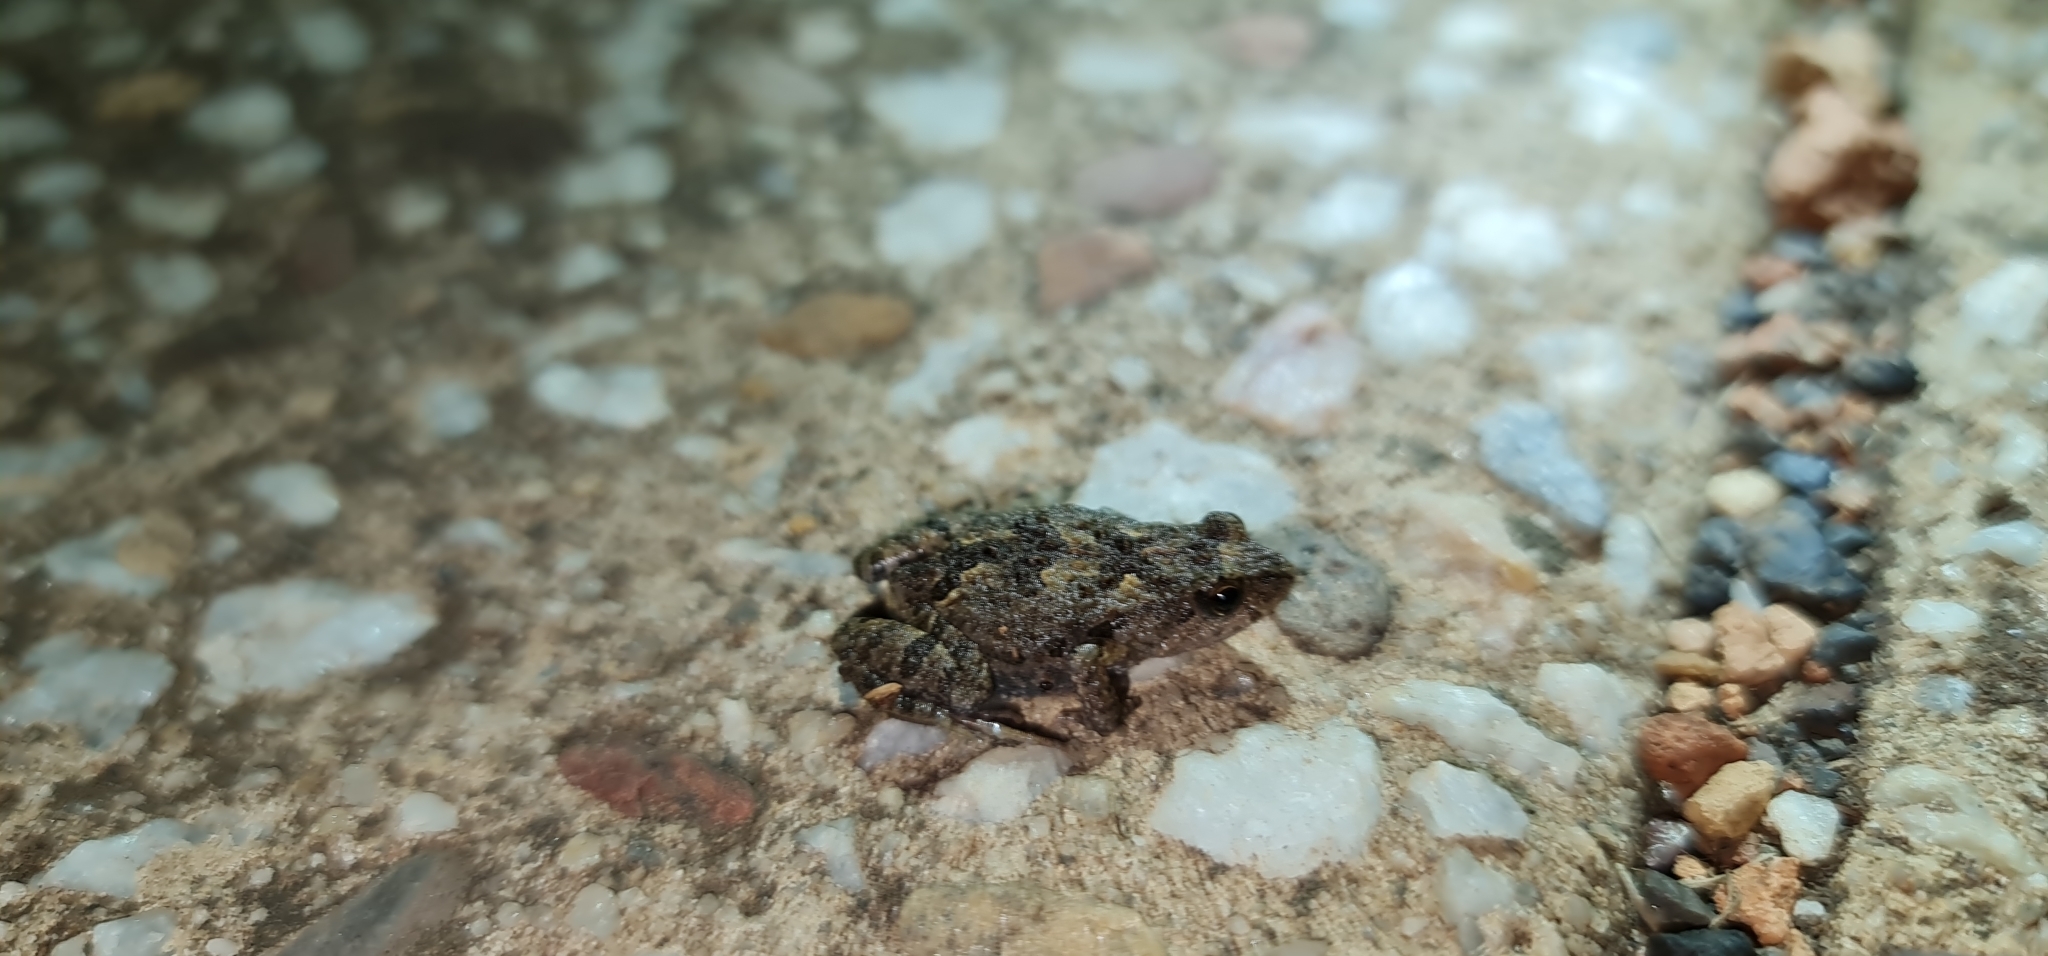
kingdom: Animalia
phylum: Chordata
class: Amphibia
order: Anura
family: Myobatrachidae
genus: Crinia
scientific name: Crinia signifera
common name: Brown froglet
